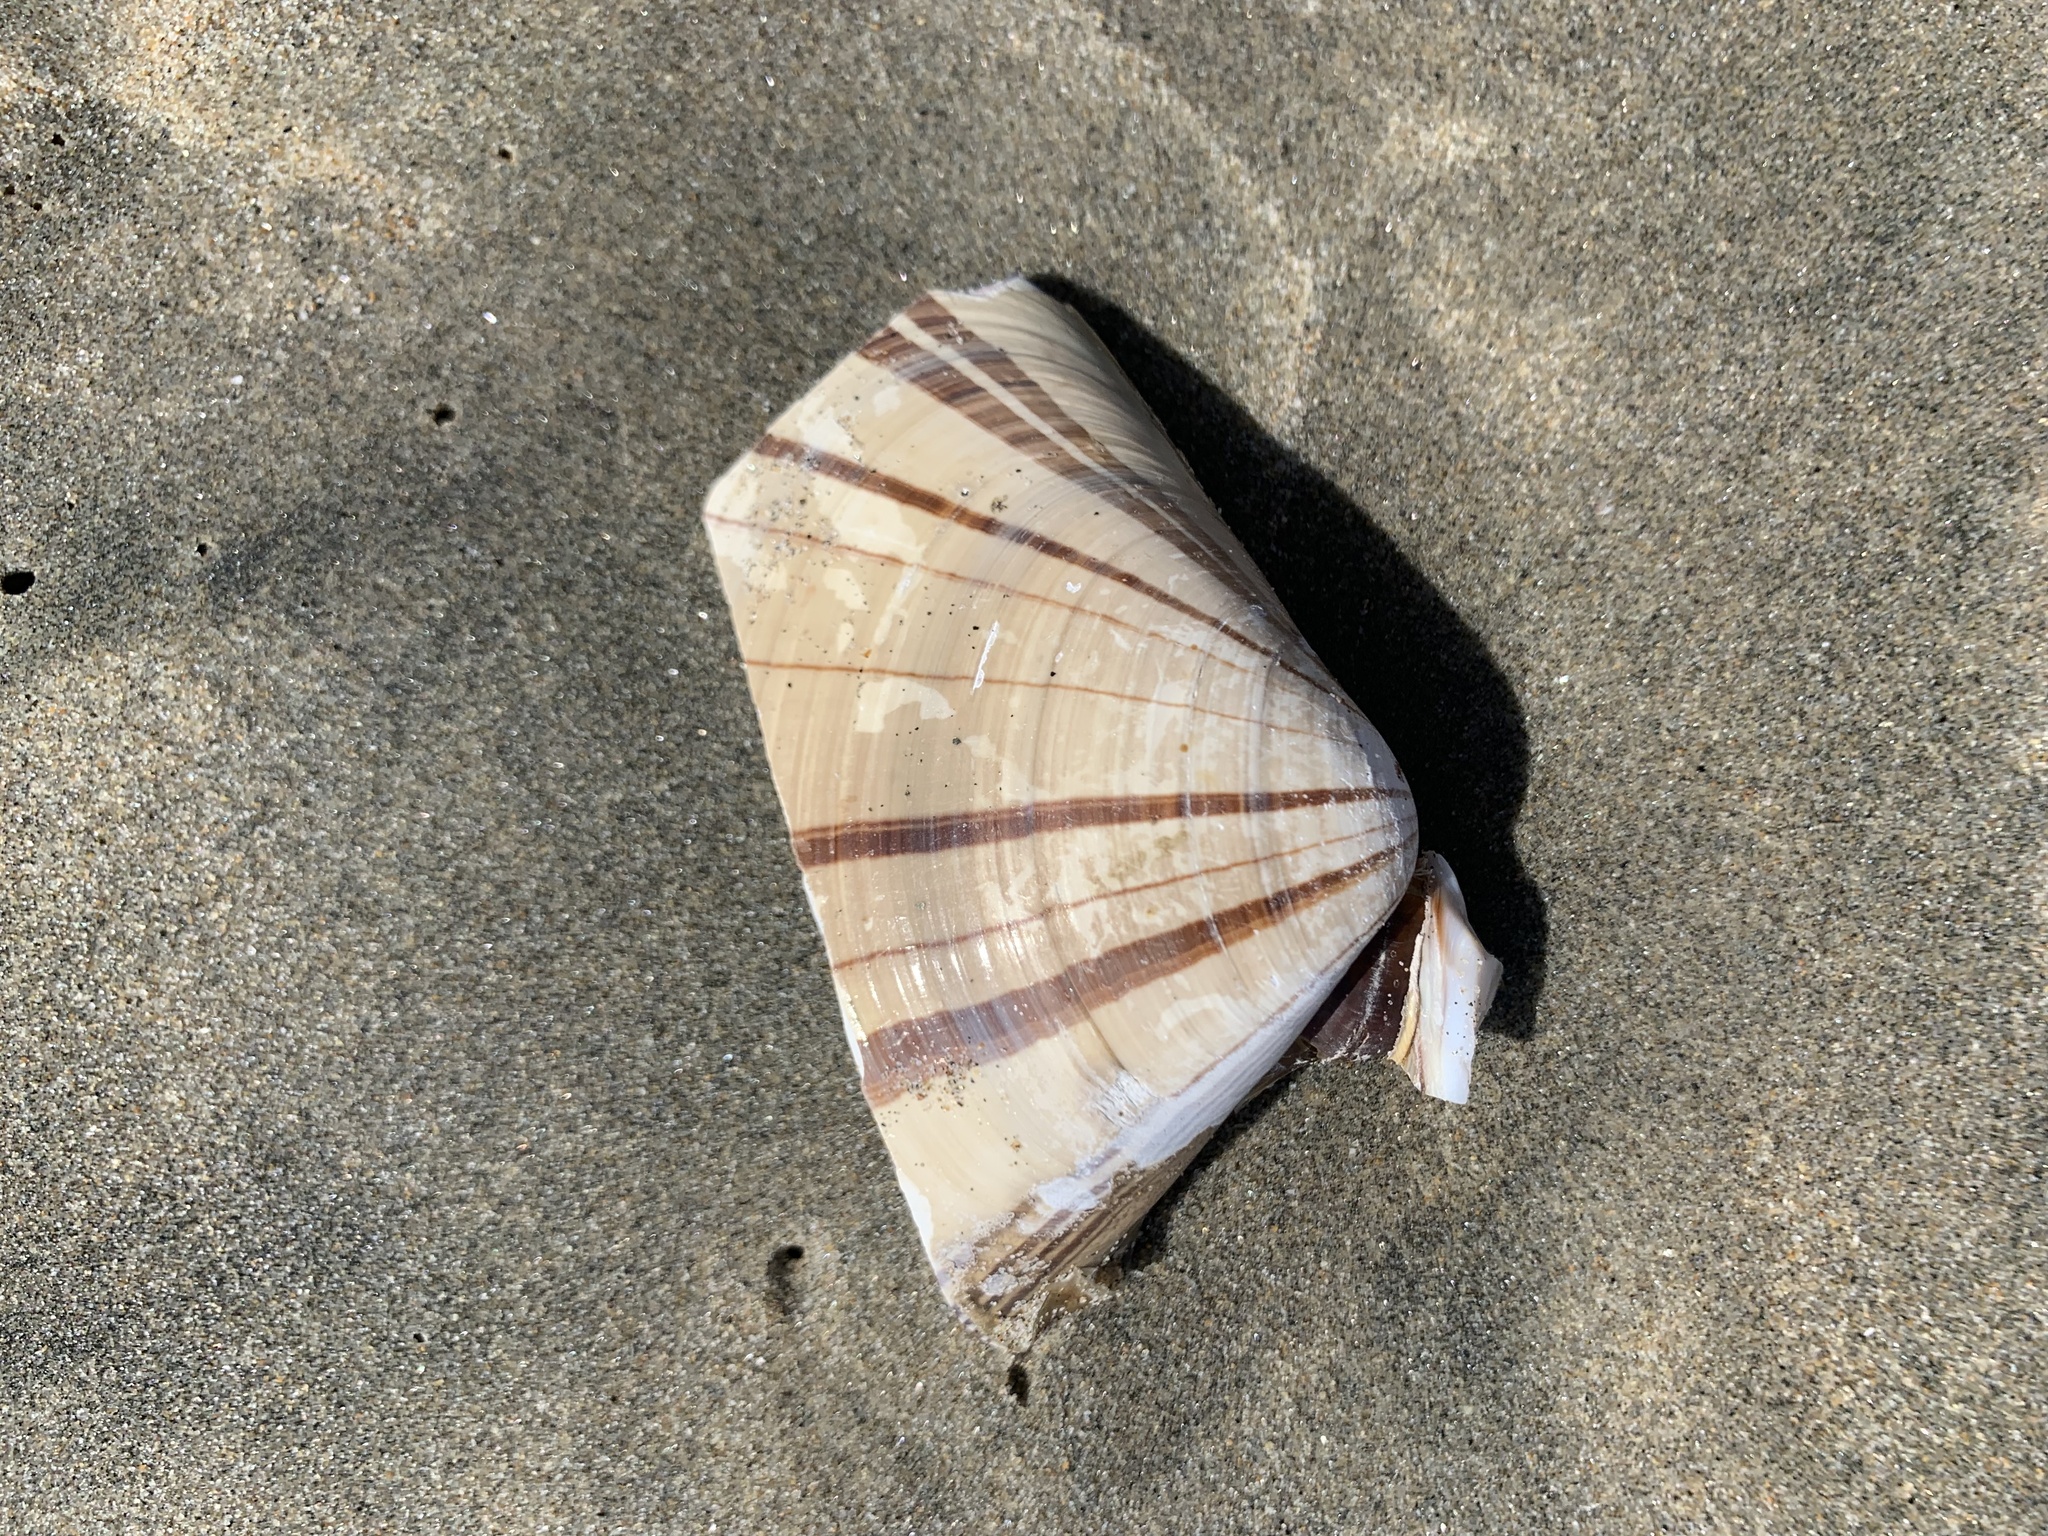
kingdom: Animalia
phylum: Mollusca
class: Bivalvia
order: Venerida
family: Veneridae
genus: Tivela
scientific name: Tivela stultorum
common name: Pismo clam
